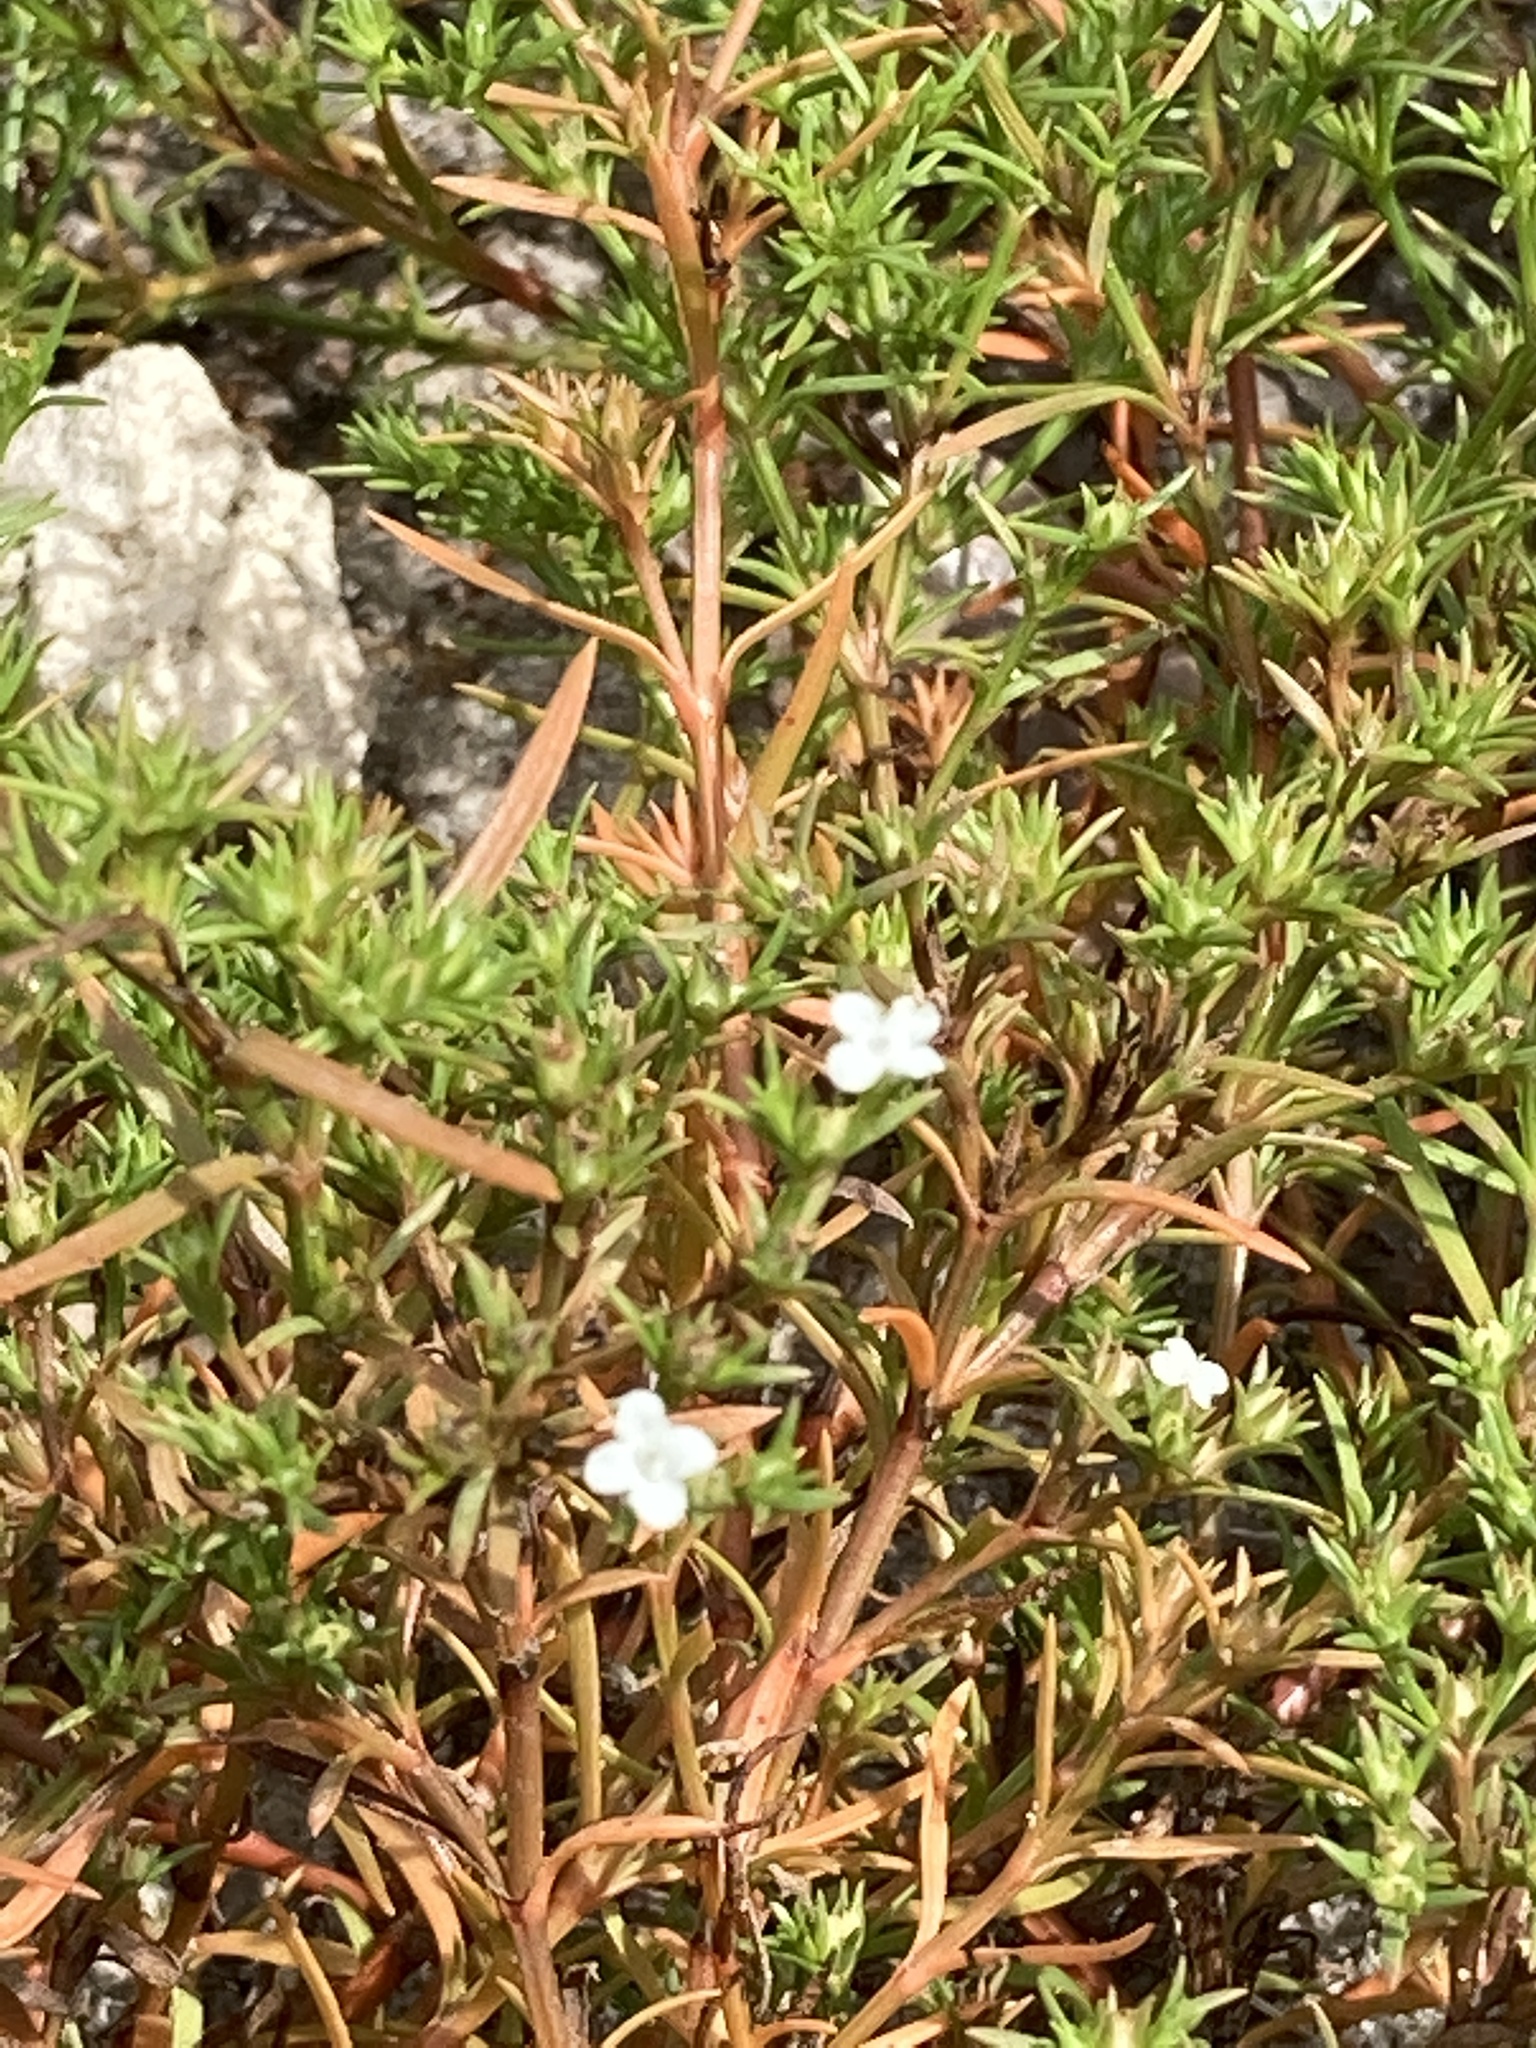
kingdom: Plantae
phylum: Tracheophyta
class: Magnoliopsida
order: Lamiales
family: Tetrachondraceae
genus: Polypremum
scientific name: Polypremum procumbens
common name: Juniper-leaf
